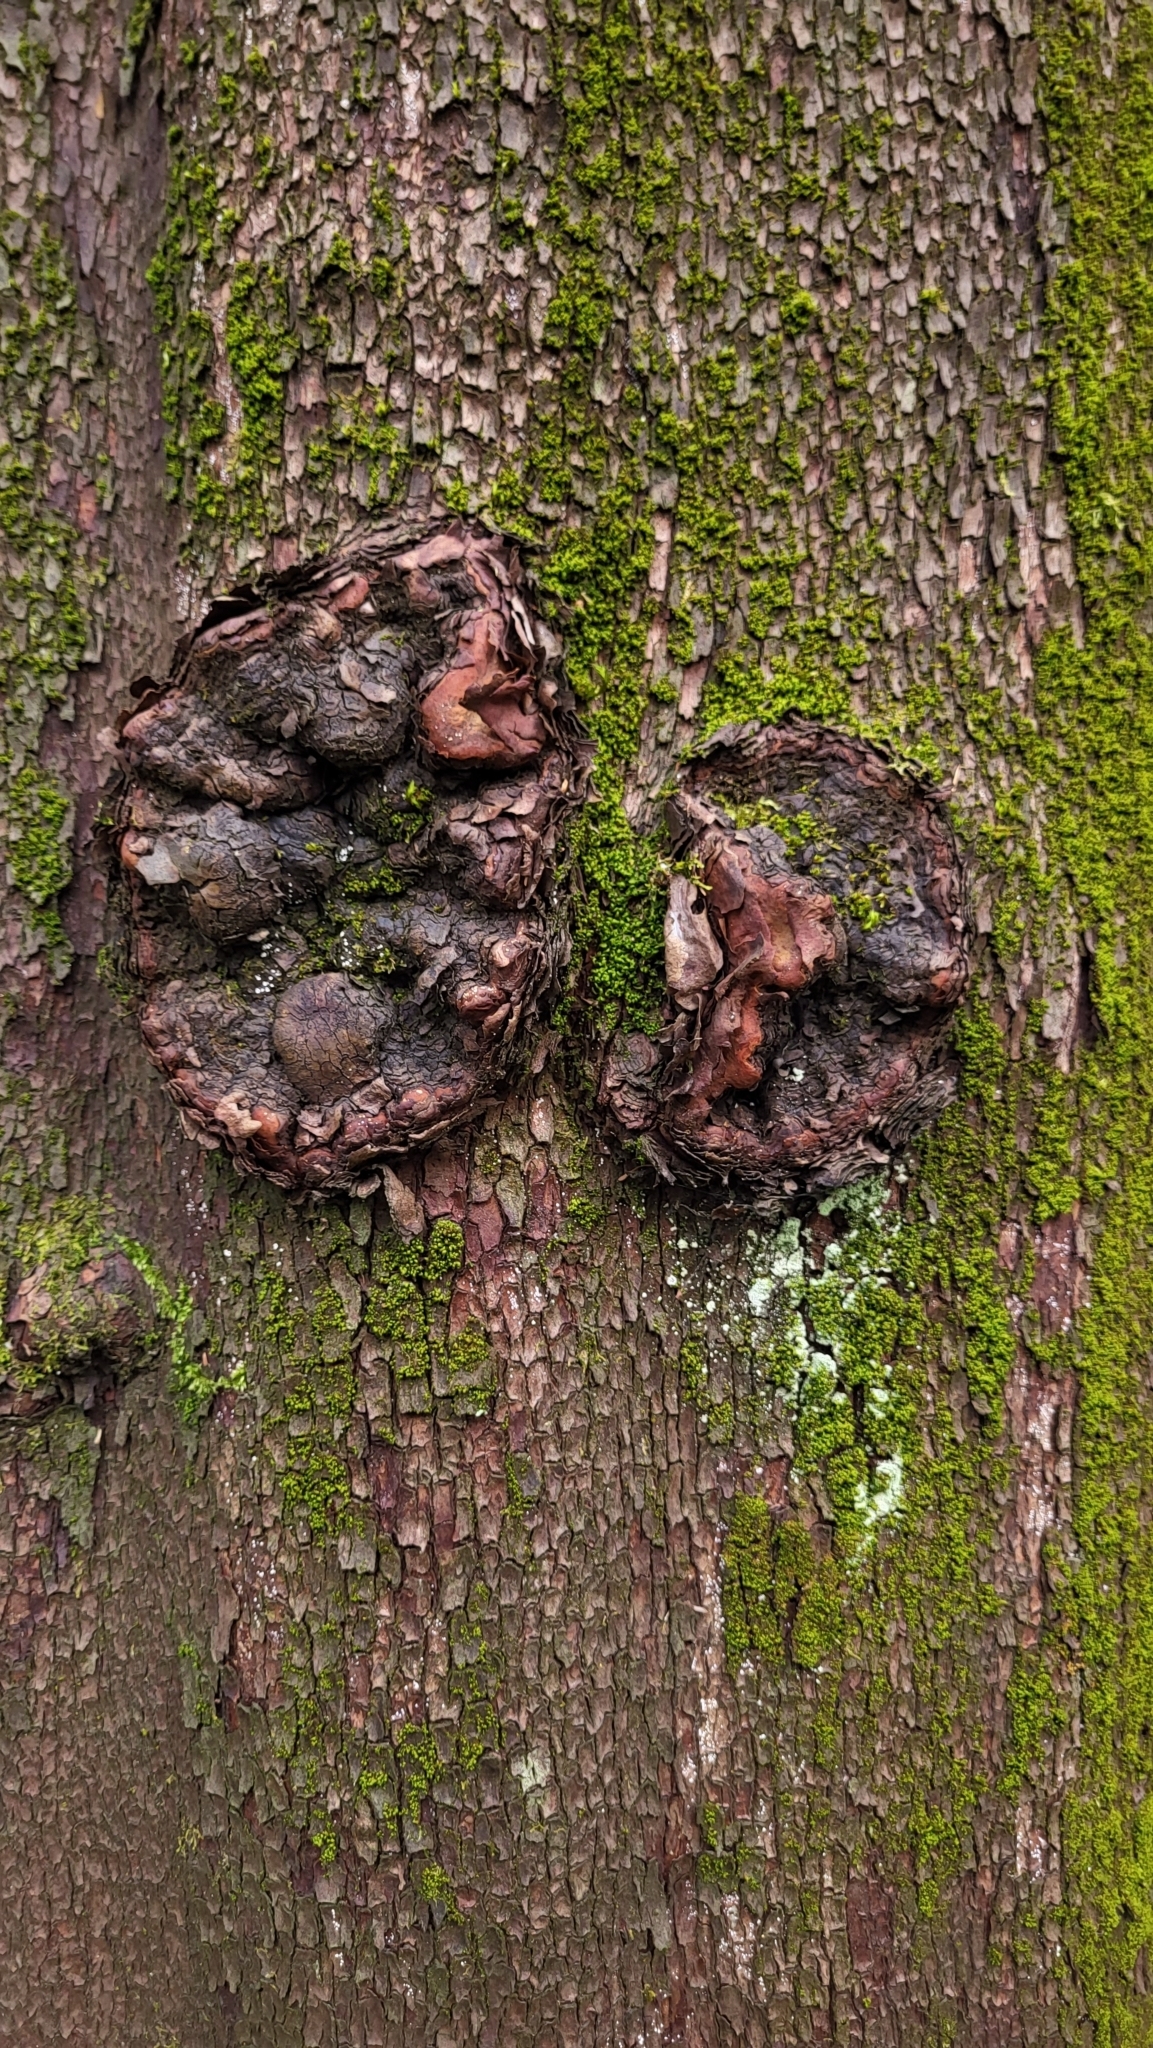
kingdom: Plantae
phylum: Tracheophyta
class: Magnoliopsida
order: Ericales
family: Ericaceae
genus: Arbutus
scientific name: Arbutus menziesii
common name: Pacific madrone
